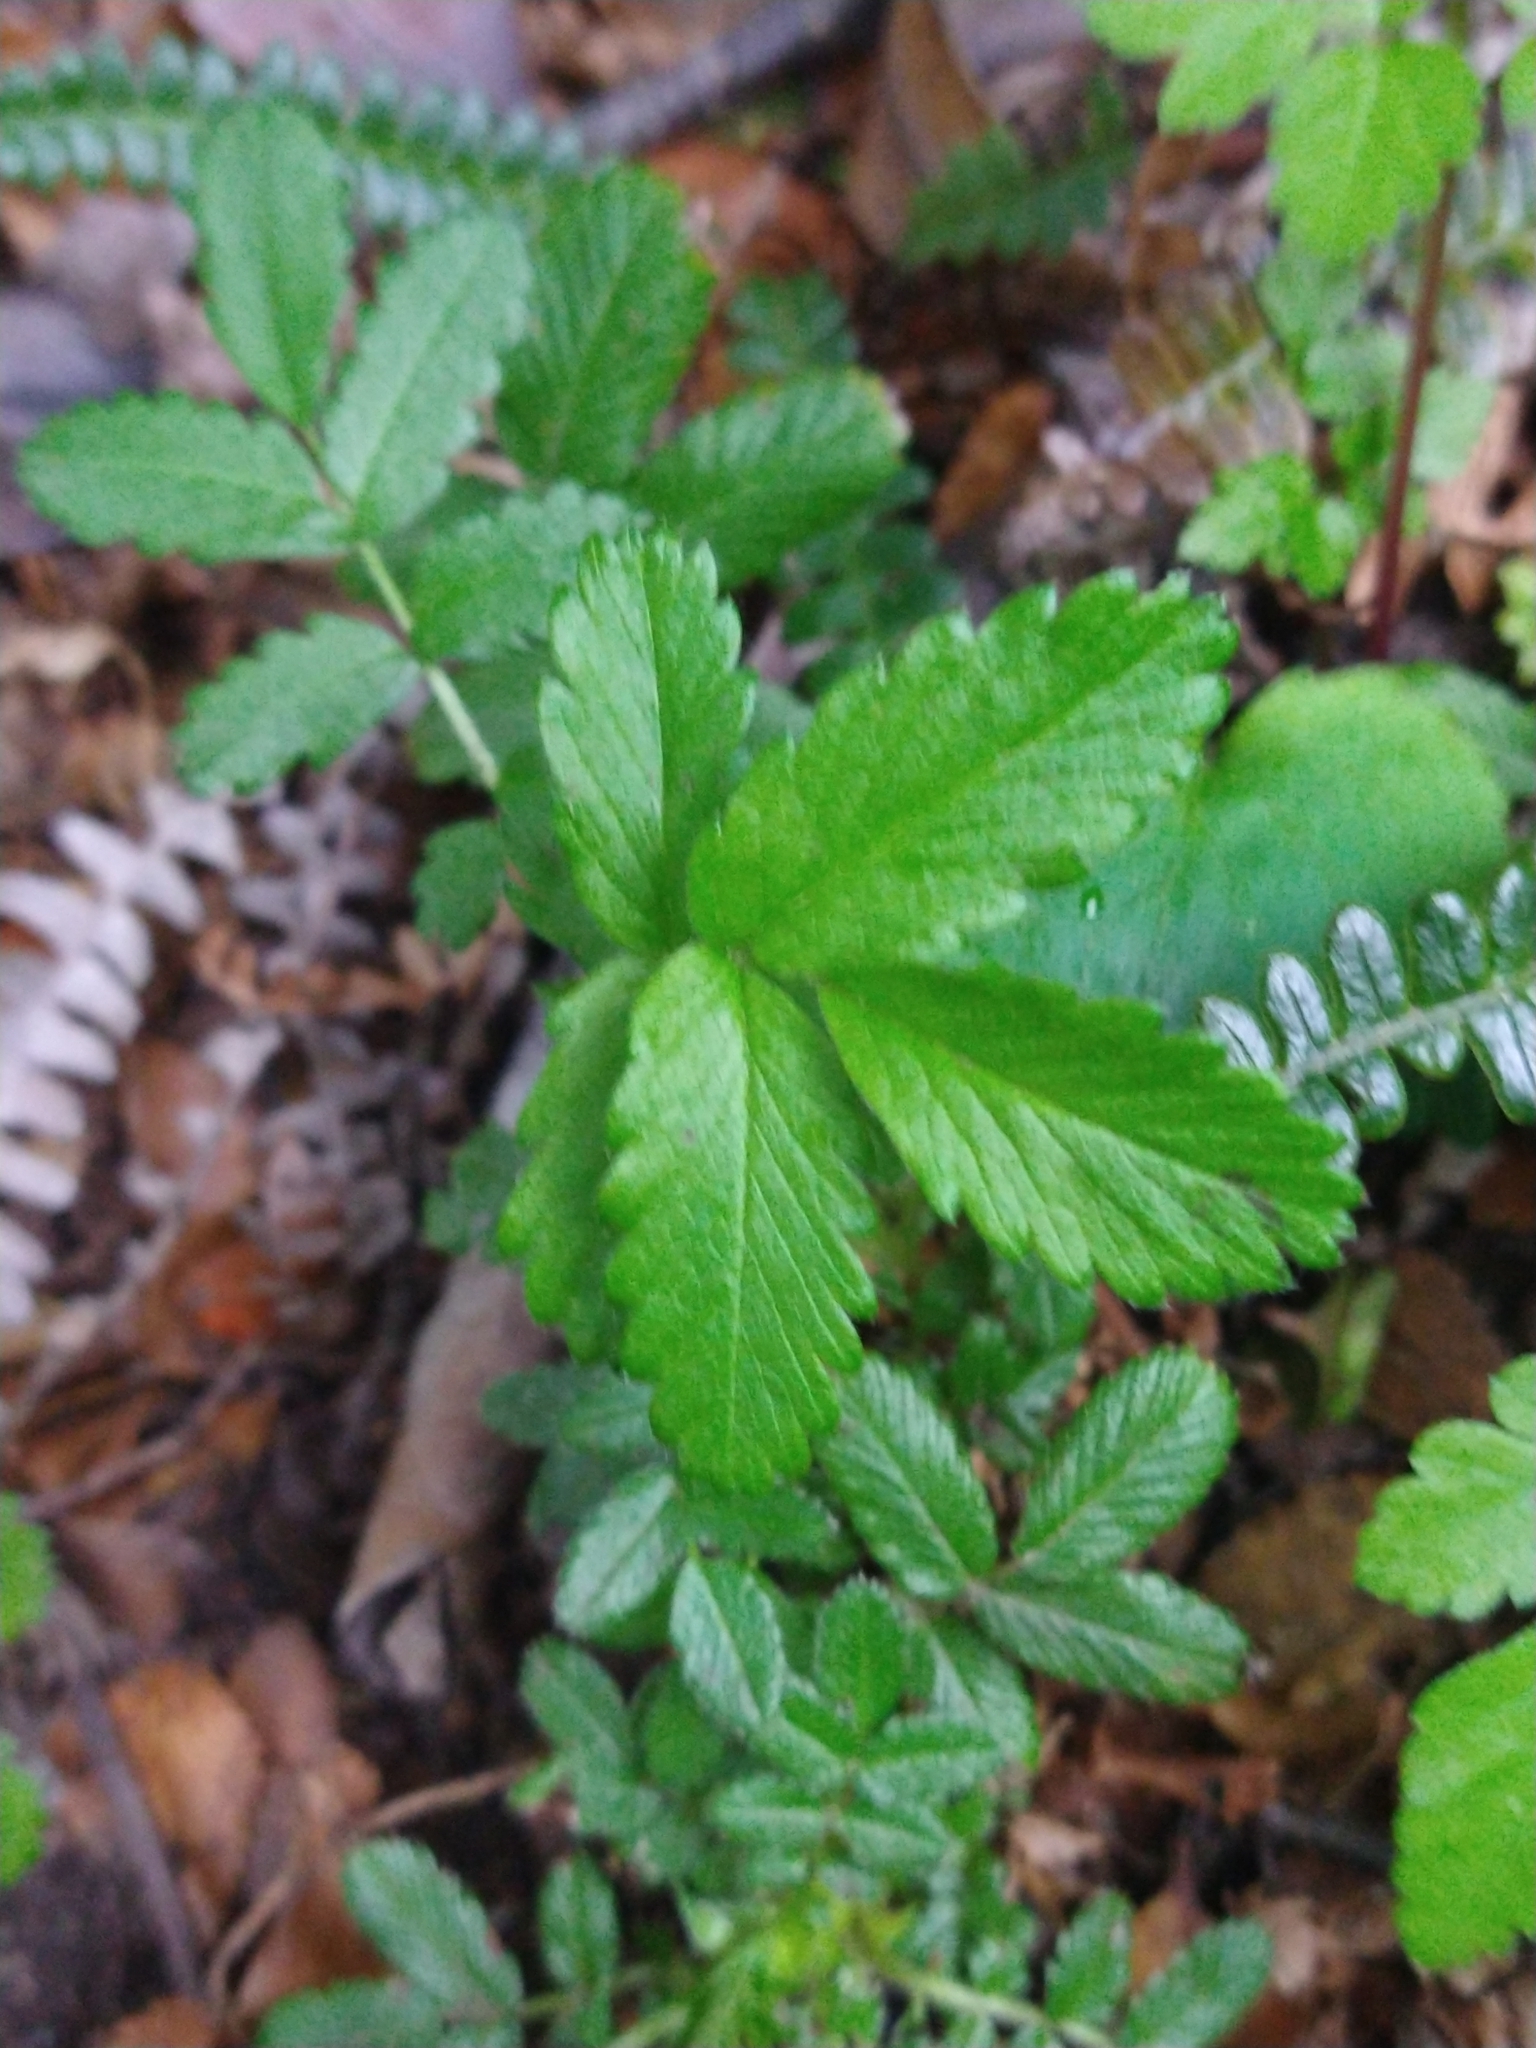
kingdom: Plantae
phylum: Tracheophyta
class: Magnoliopsida
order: Rosales
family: Rosaceae
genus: Acaena
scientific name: Acaena ovalifolia
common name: Two-spined acaena
